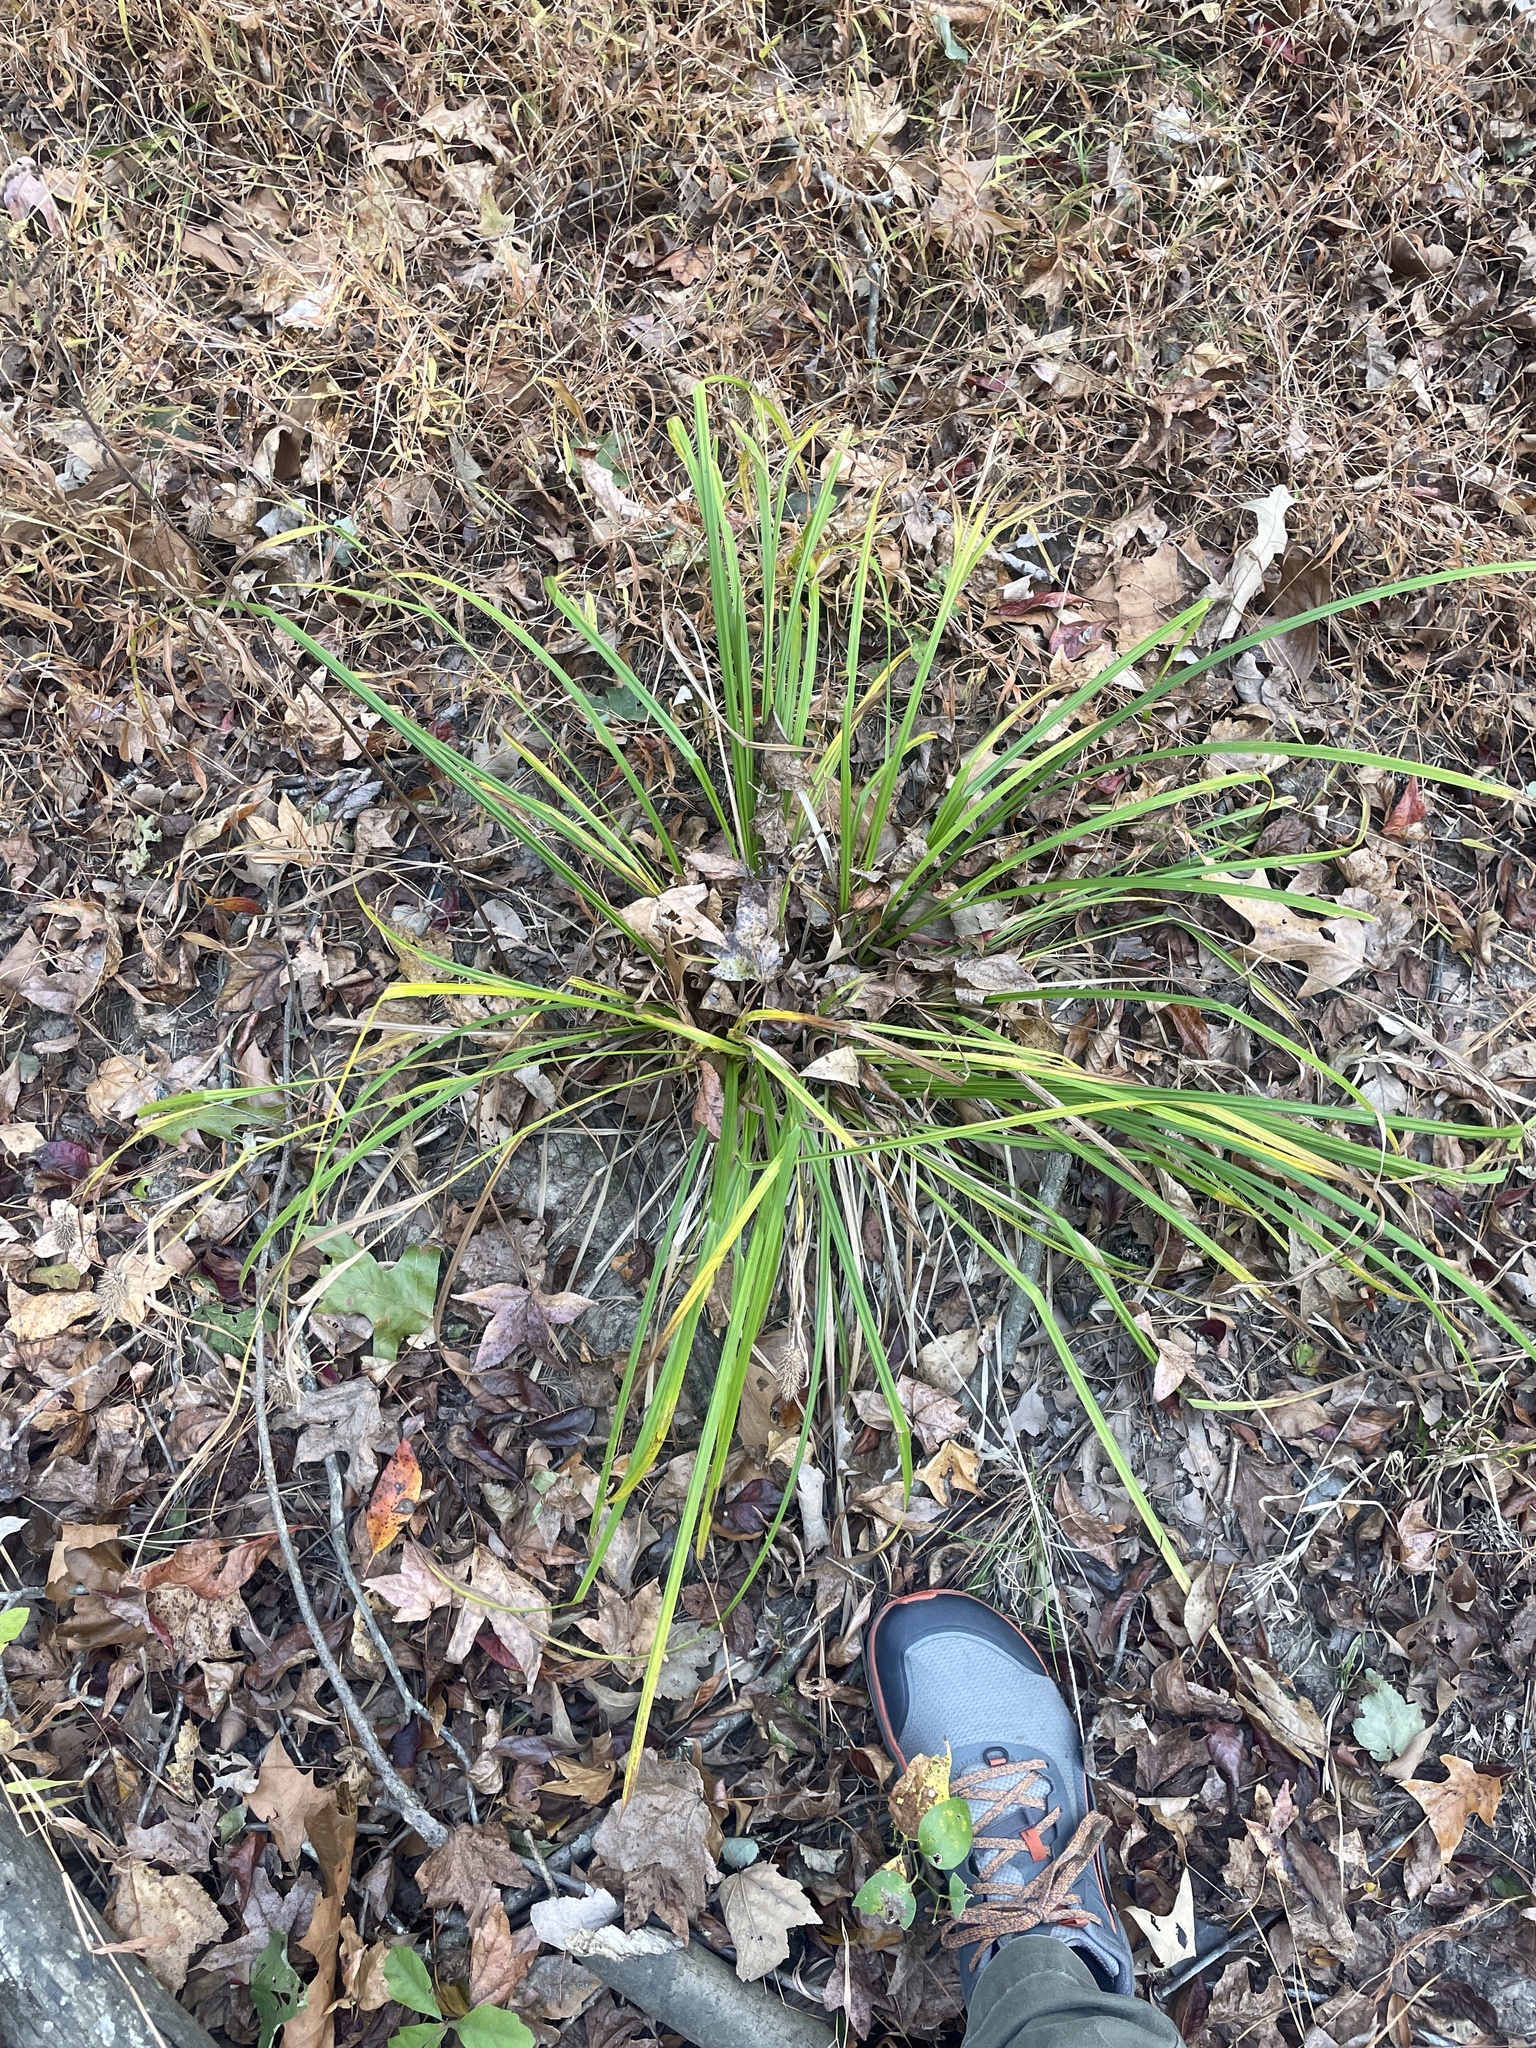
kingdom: Plantae
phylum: Tracheophyta
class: Liliopsida
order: Poales
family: Cyperaceae
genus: Carex
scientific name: Carex typhina
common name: Cattail sedge
